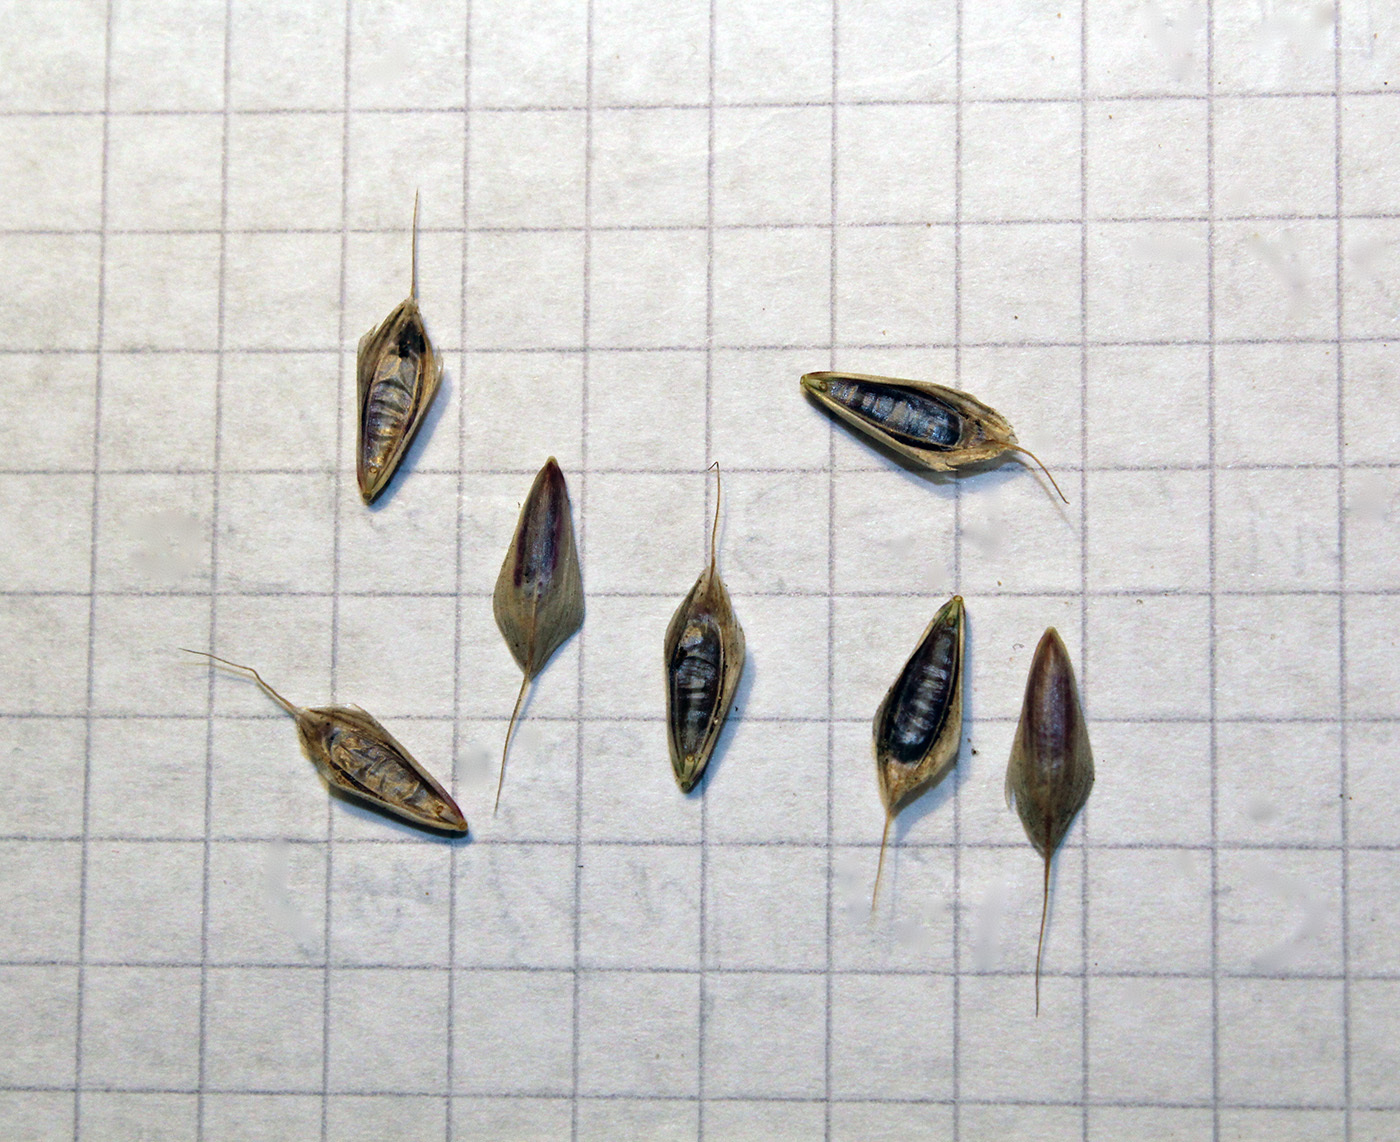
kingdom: Plantae
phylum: Tracheophyta
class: Liliopsida
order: Poales
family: Poaceae
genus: Bromus
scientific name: Bromus hordeaceus
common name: Soft brome
